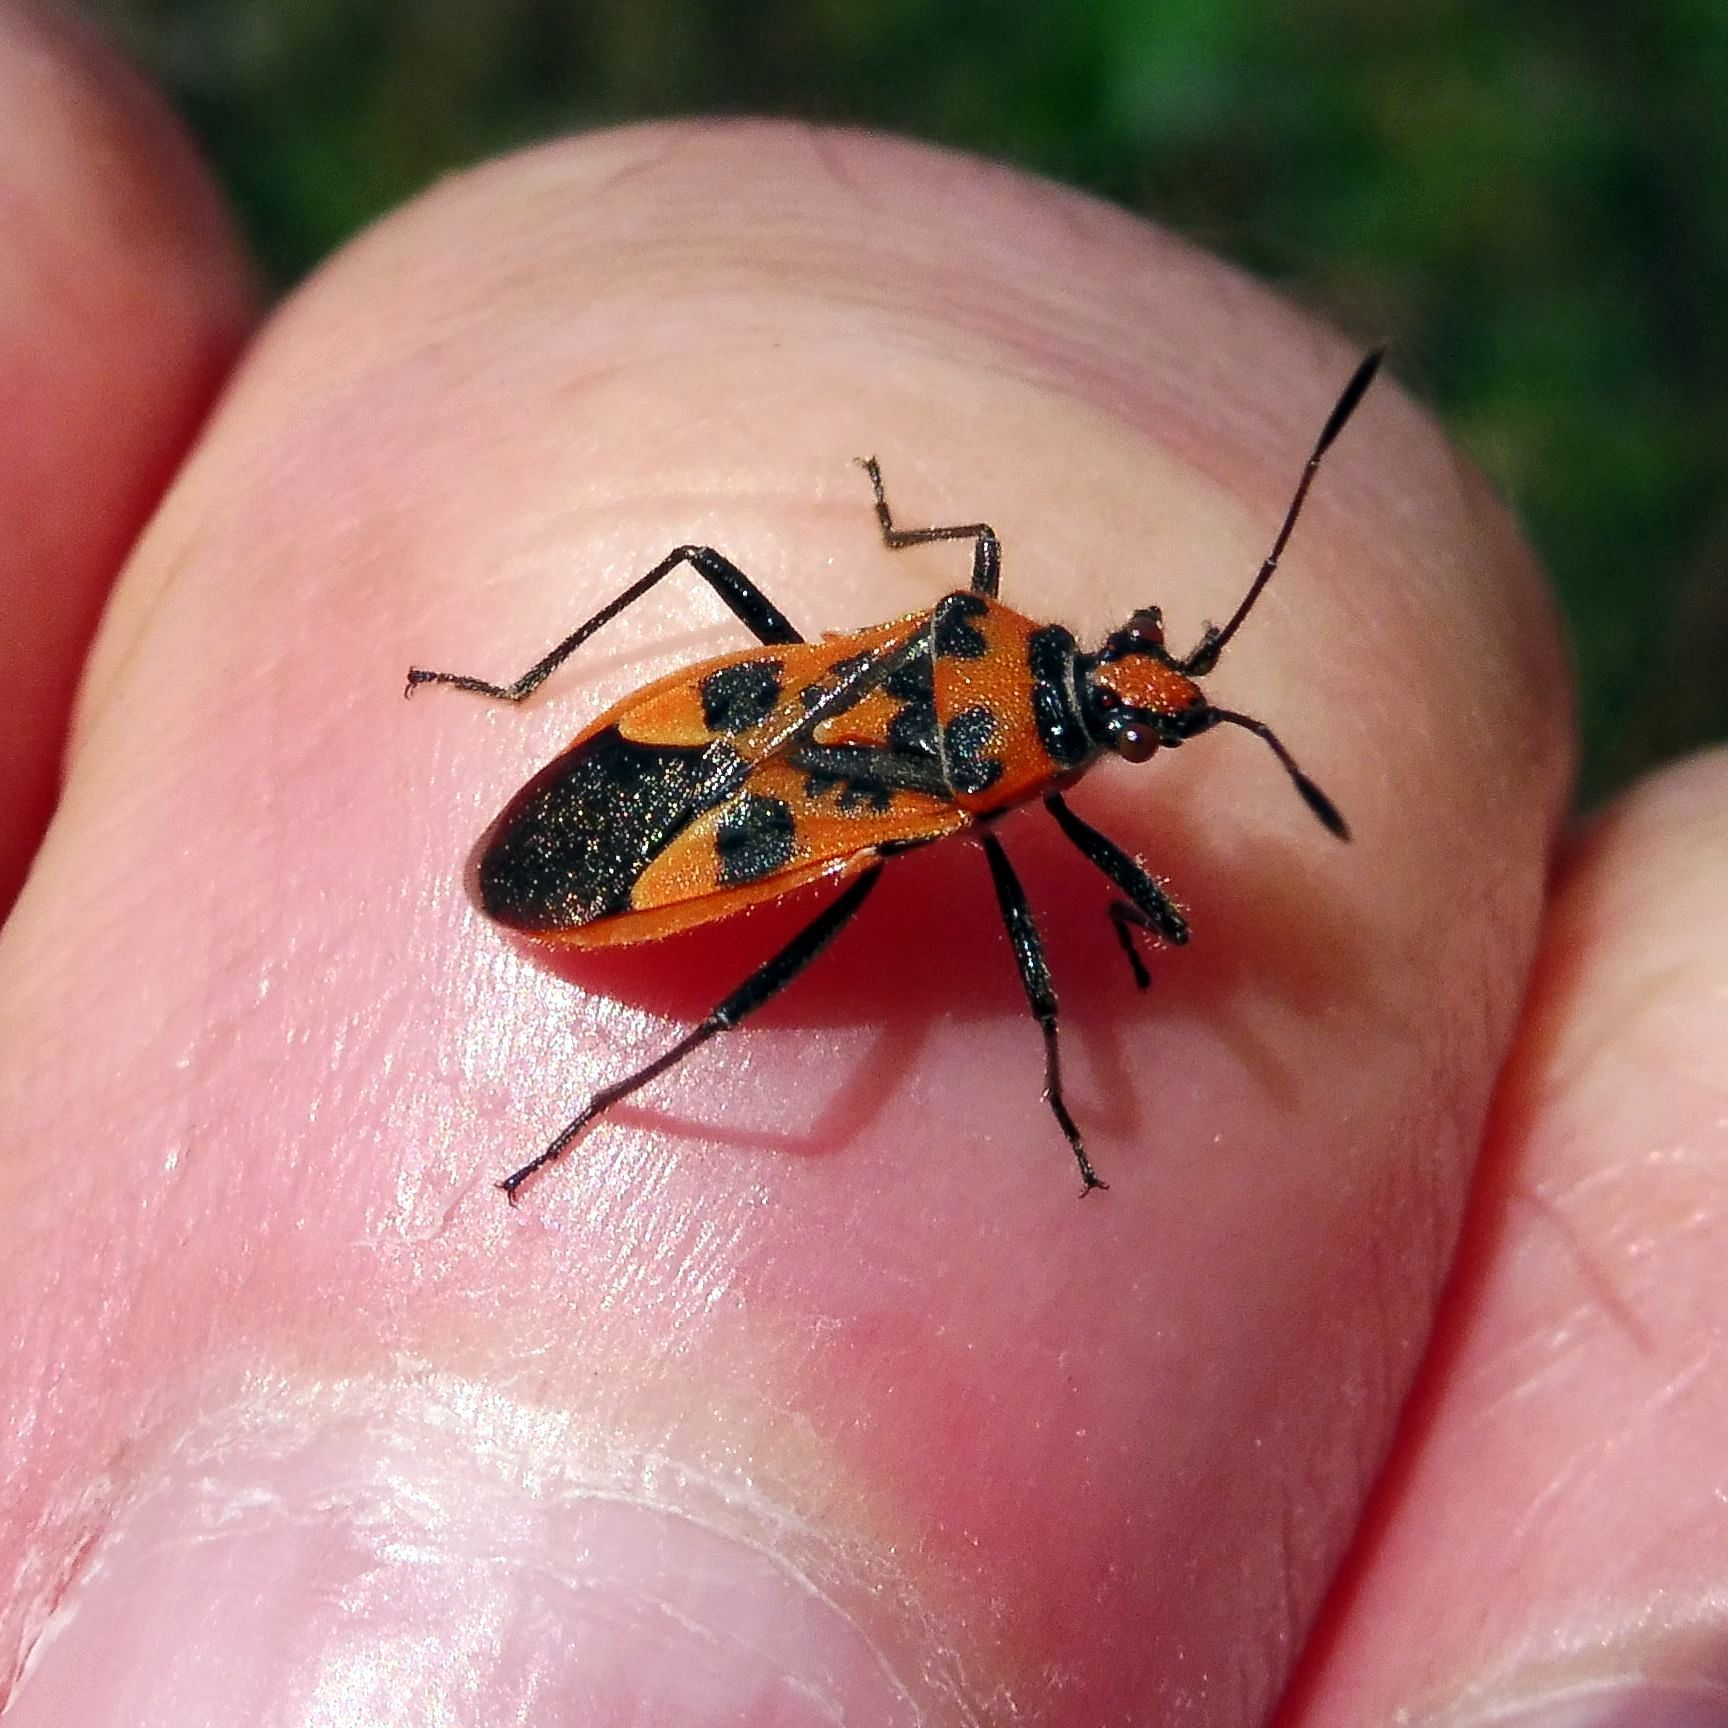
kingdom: Animalia
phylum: Arthropoda
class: Insecta
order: Hemiptera
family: Rhopalidae
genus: Corizus
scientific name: Corizus hyoscyami
